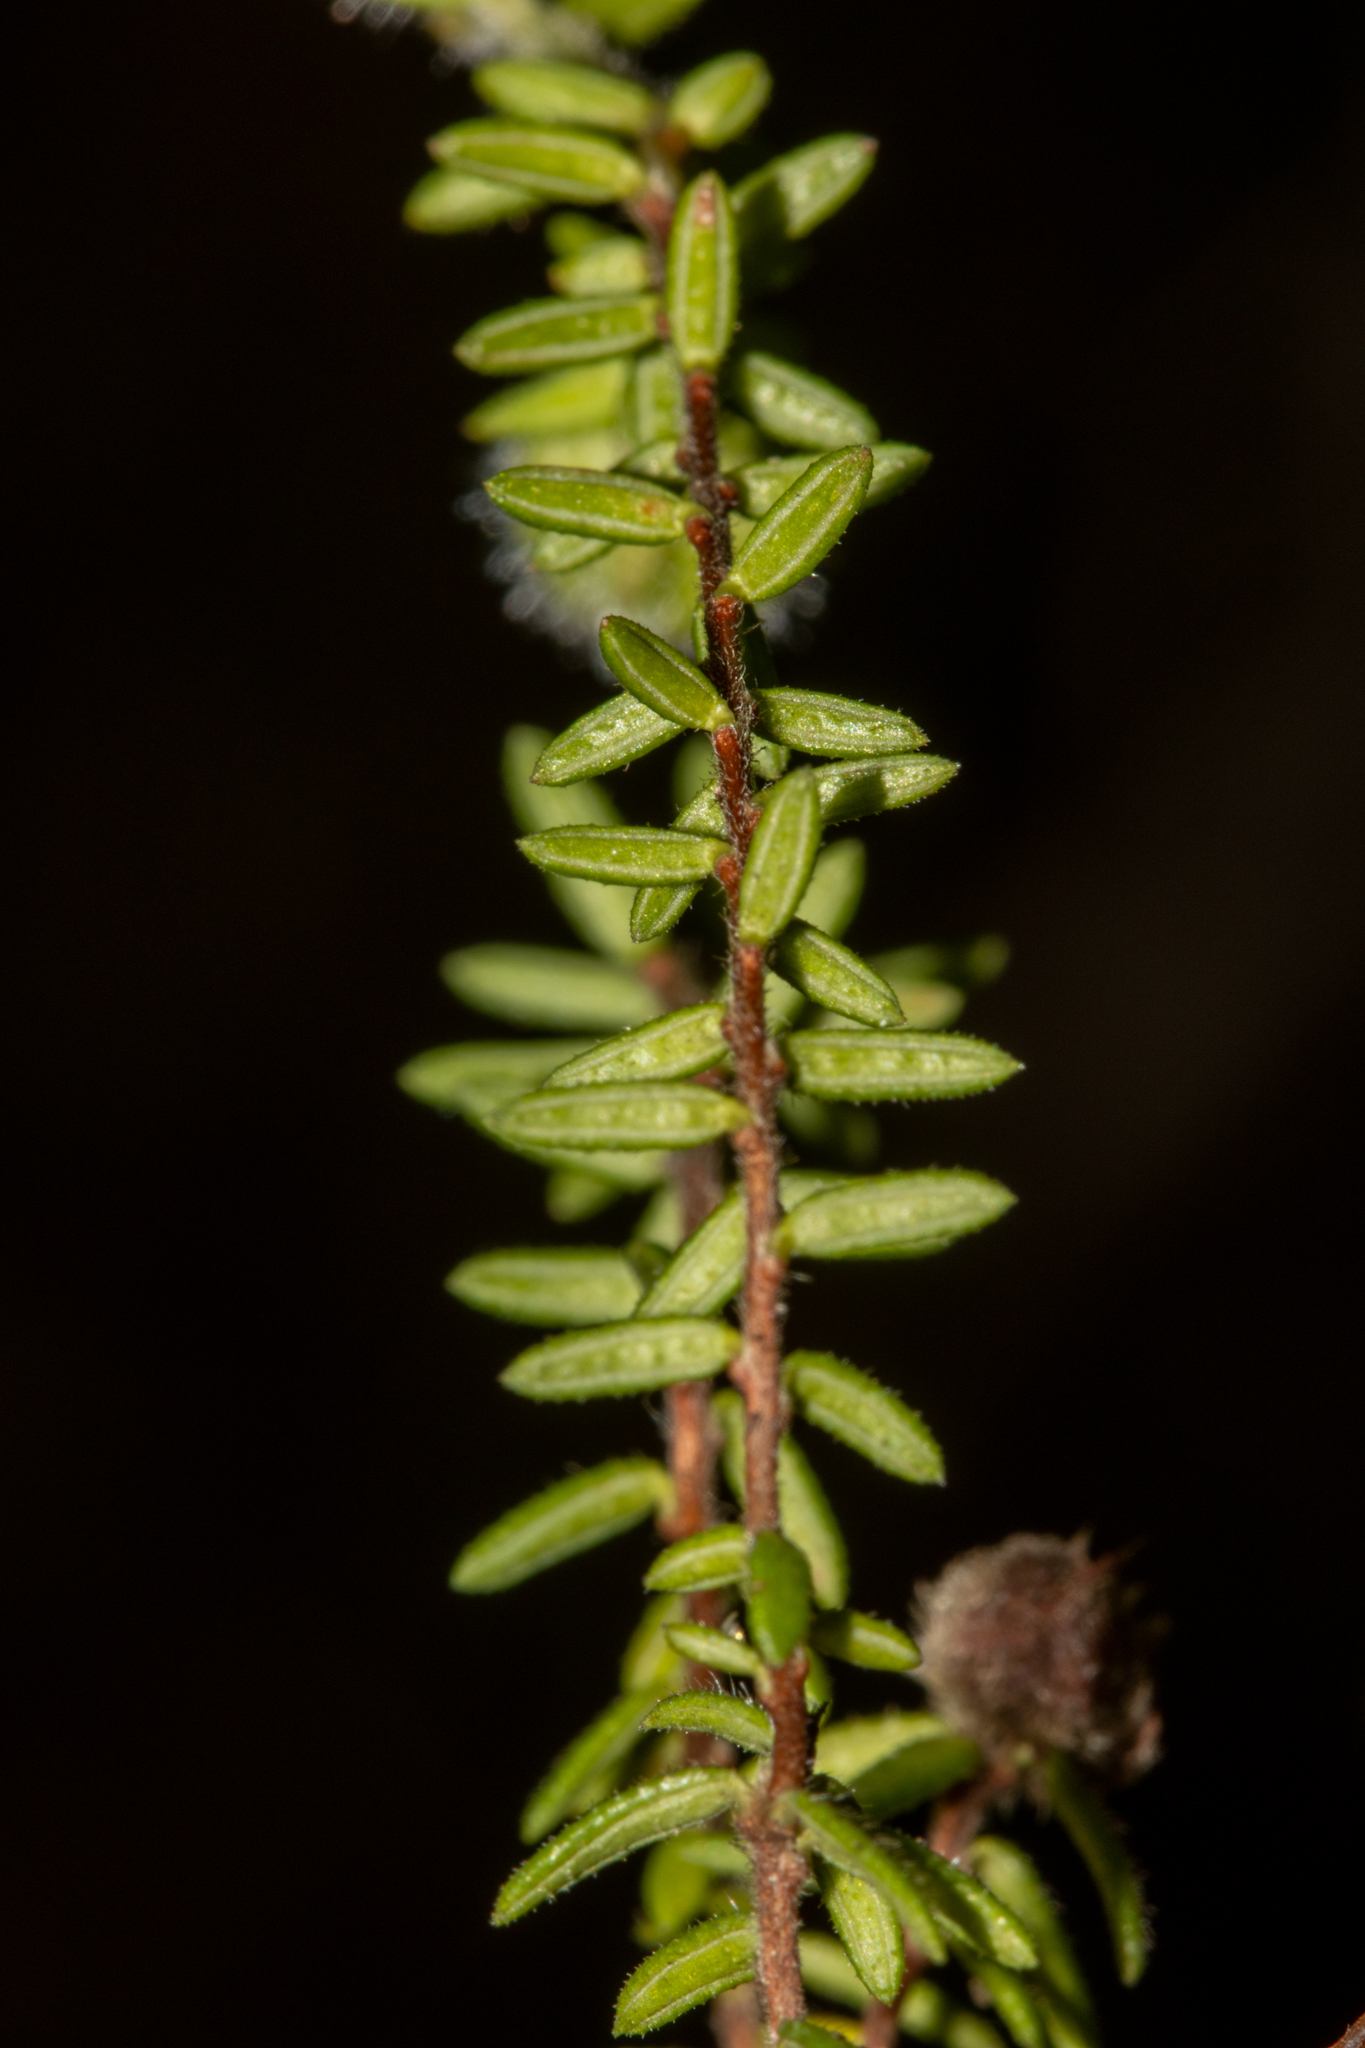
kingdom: Plantae
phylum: Tracheophyta
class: Magnoliopsida
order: Dilleniales
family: Dilleniaceae
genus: Hibbertia
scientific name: Hibbertia puberula
